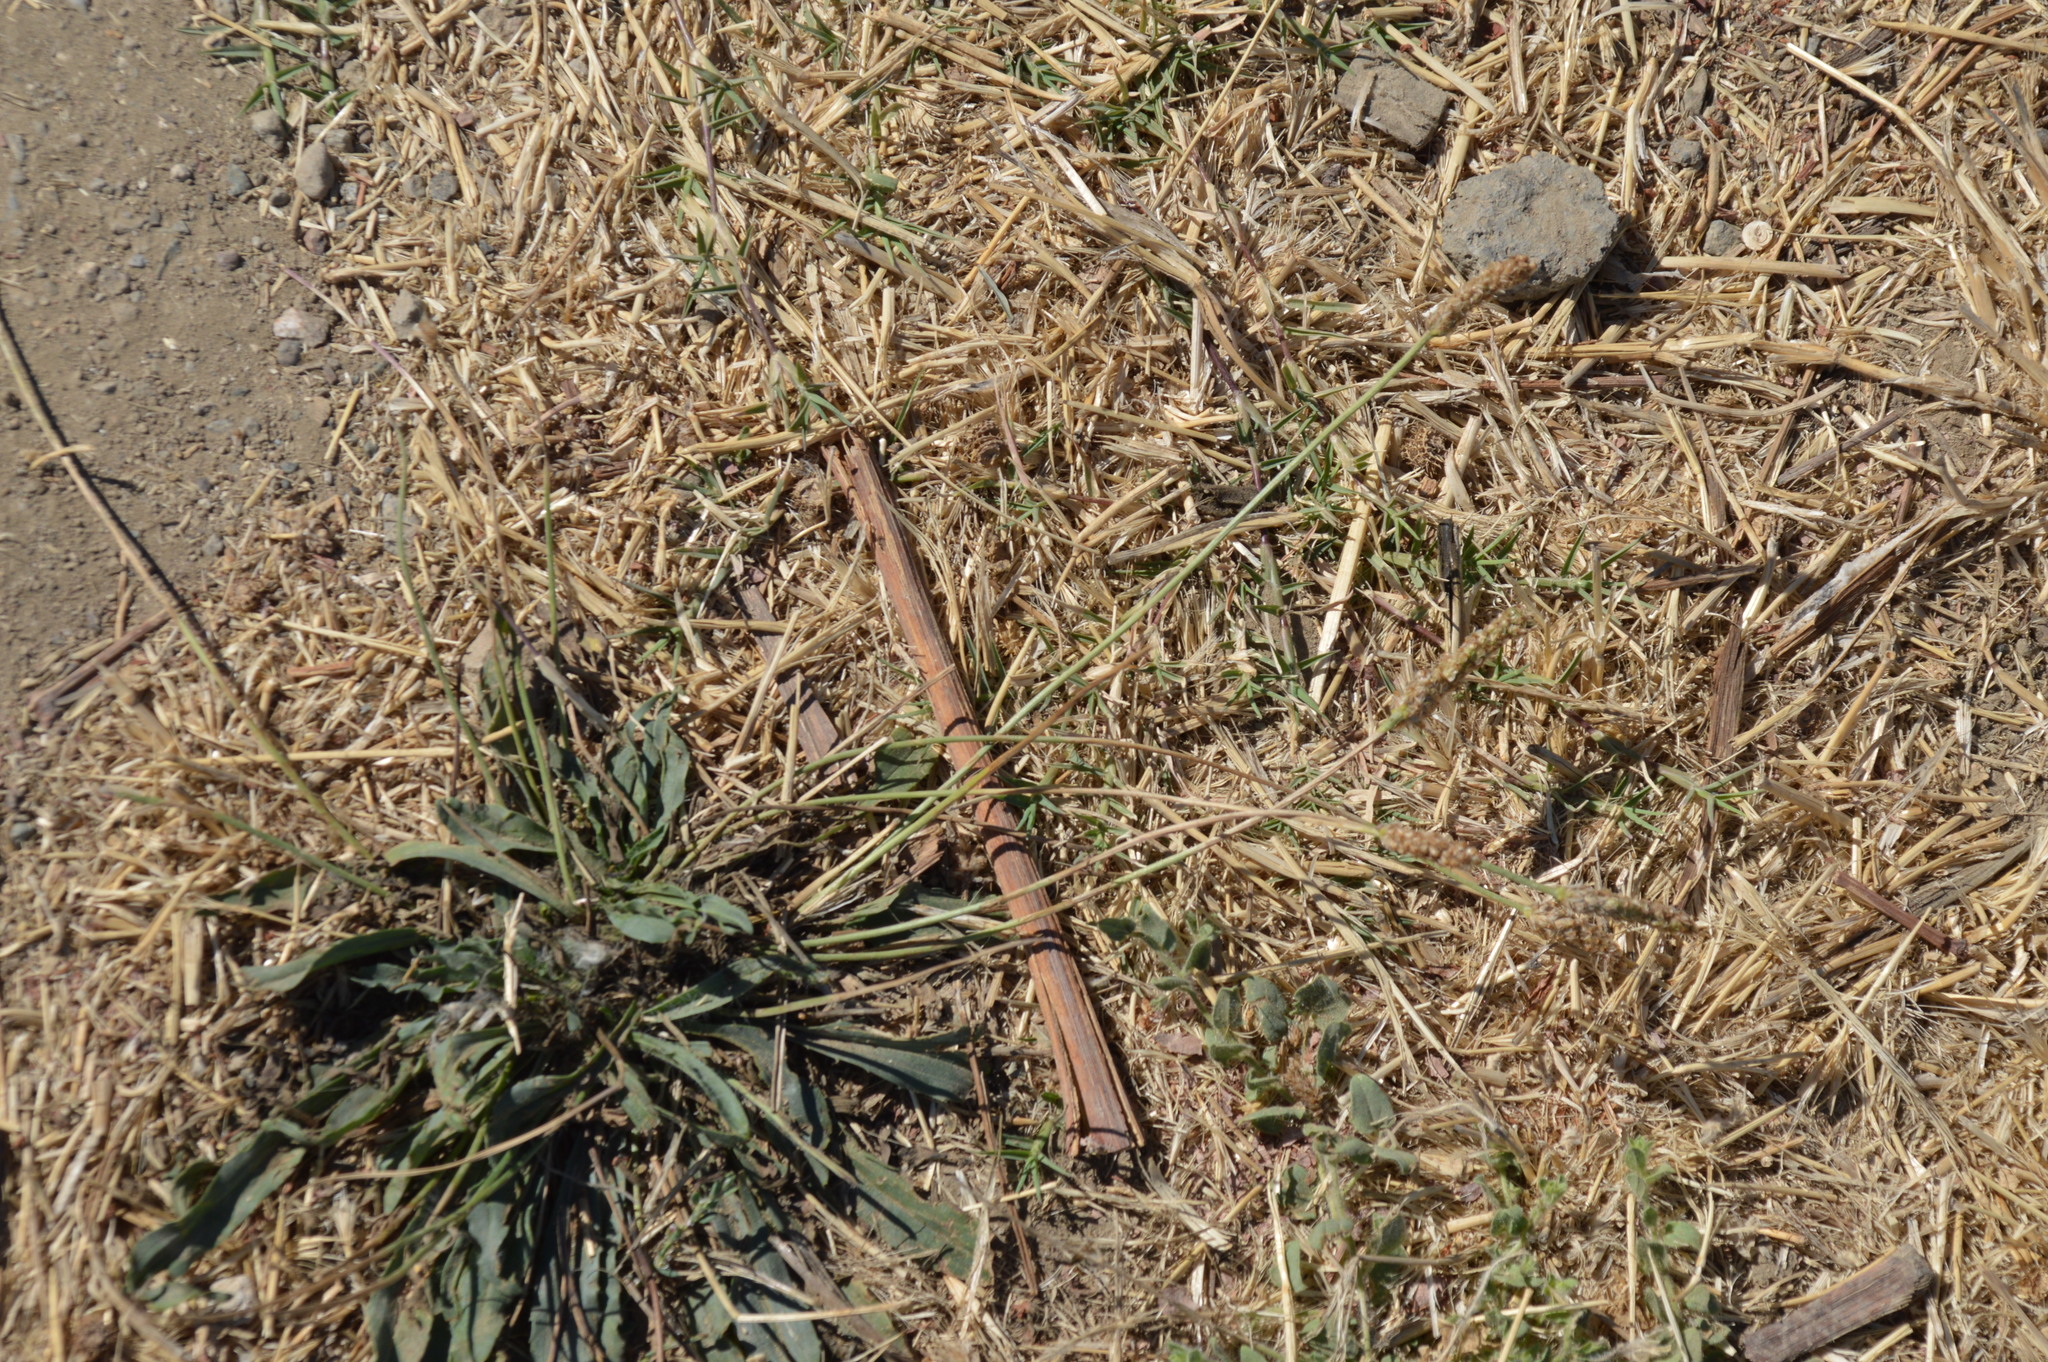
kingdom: Plantae
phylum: Tracheophyta
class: Magnoliopsida
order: Lamiales
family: Plantaginaceae
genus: Plantago
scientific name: Plantago lanceolata
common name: Ribwort plantain
